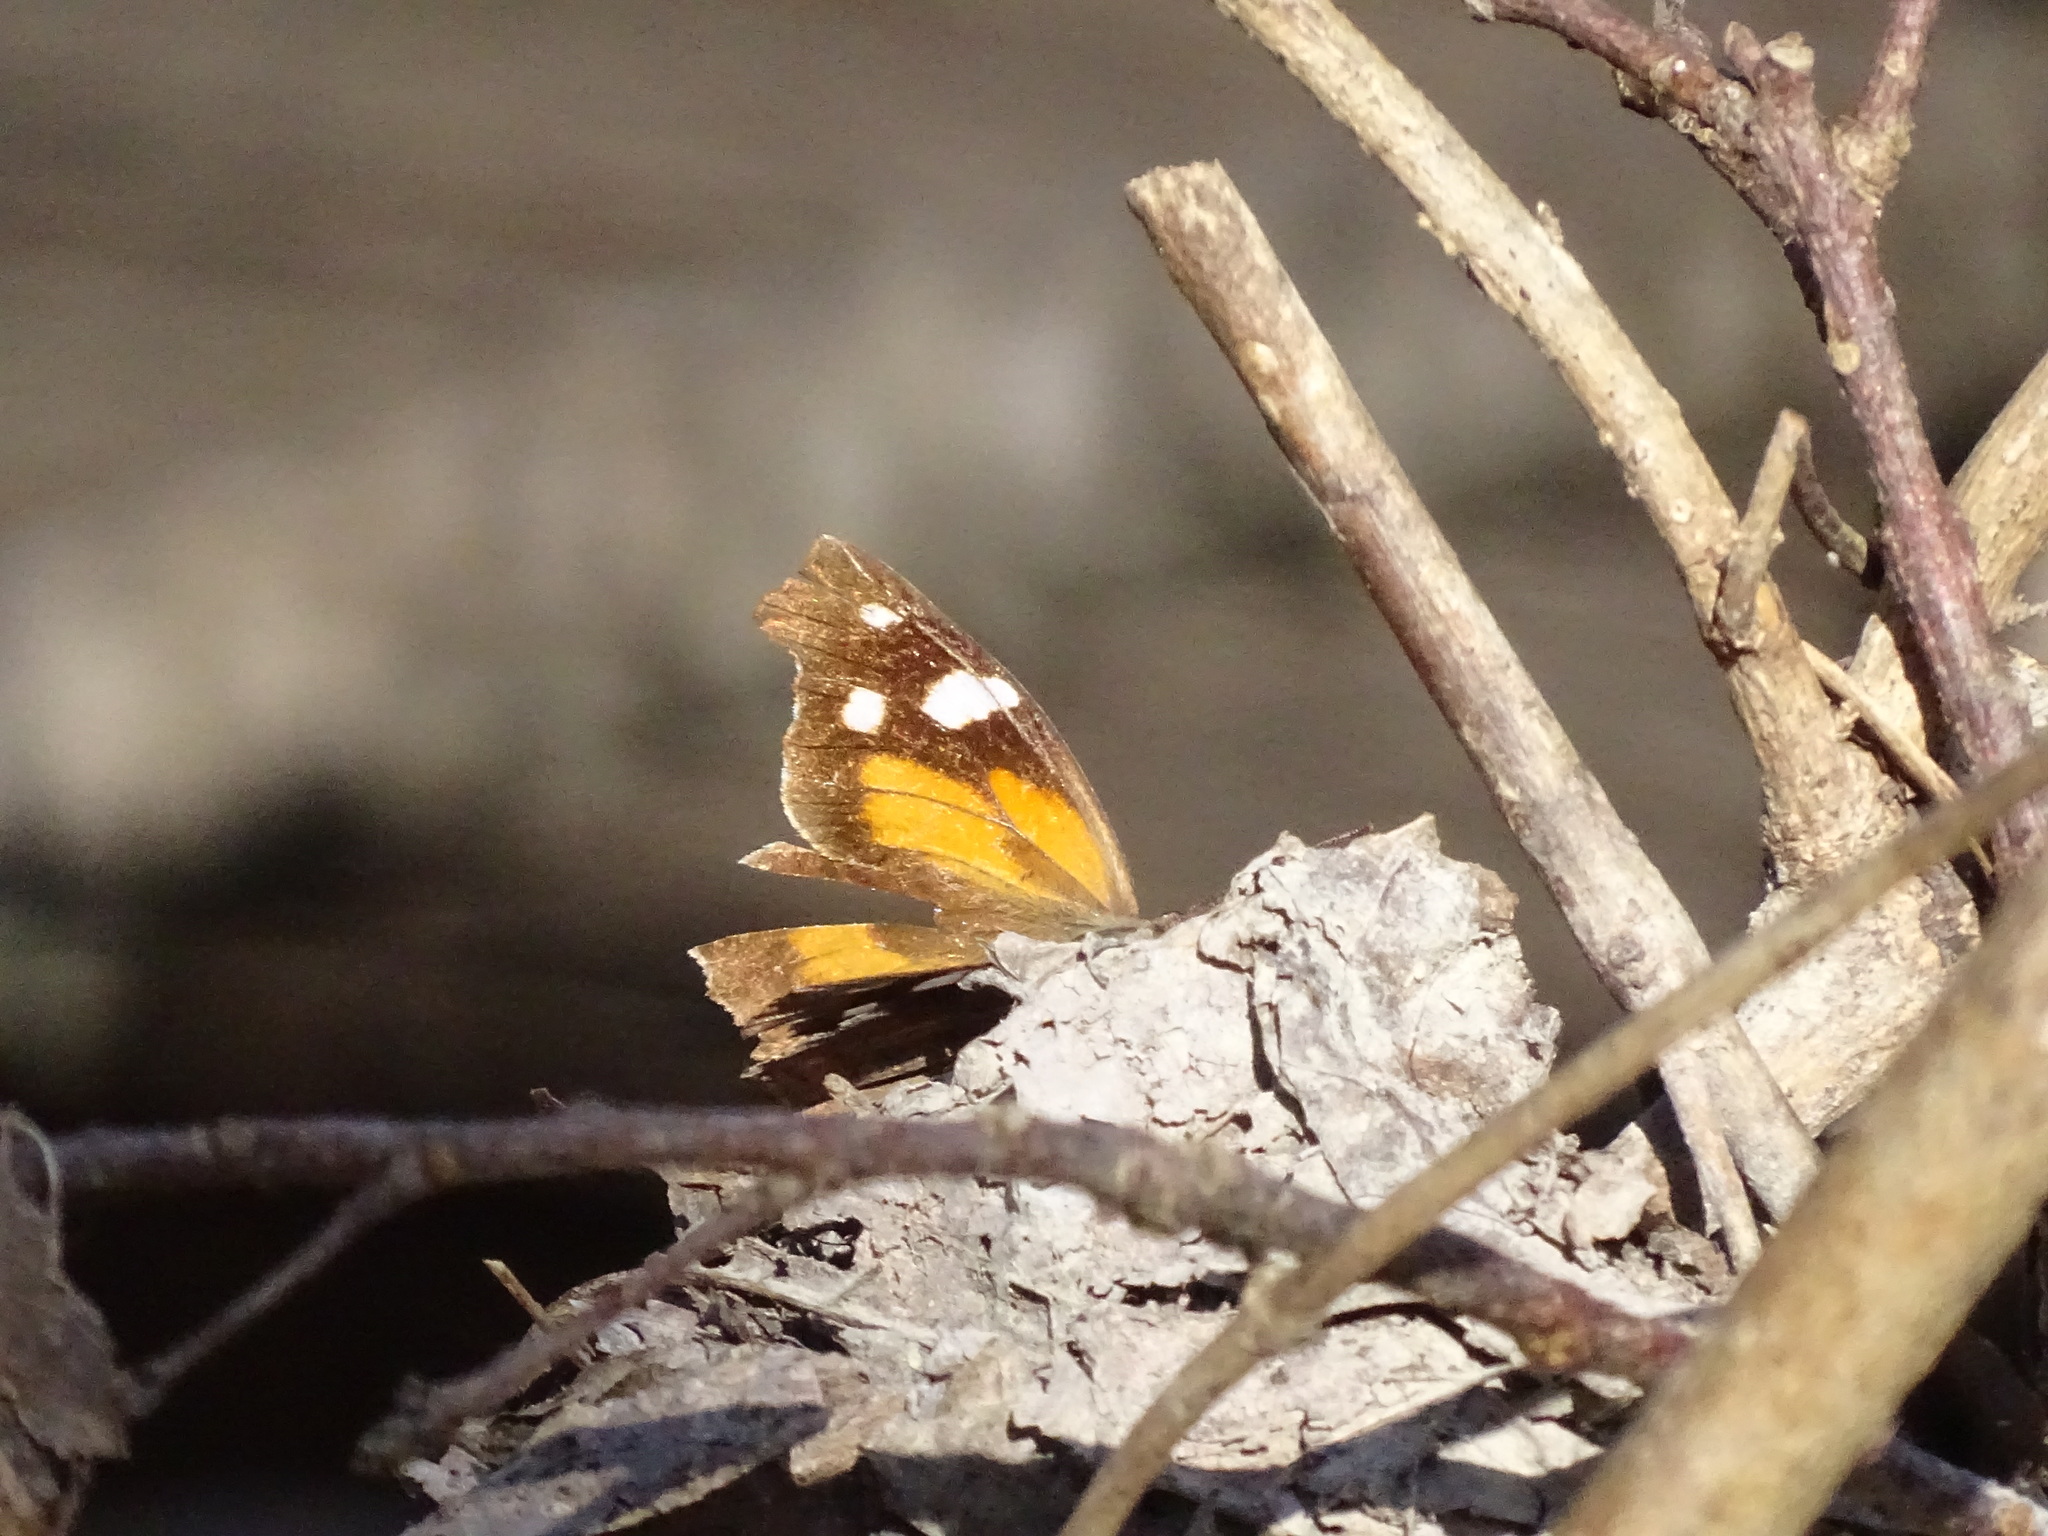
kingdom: Animalia
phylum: Arthropoda
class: Insecta
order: Lepidoptera
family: Nymphalidae
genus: Libytheana
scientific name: Libytheana carinenta
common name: American snout
